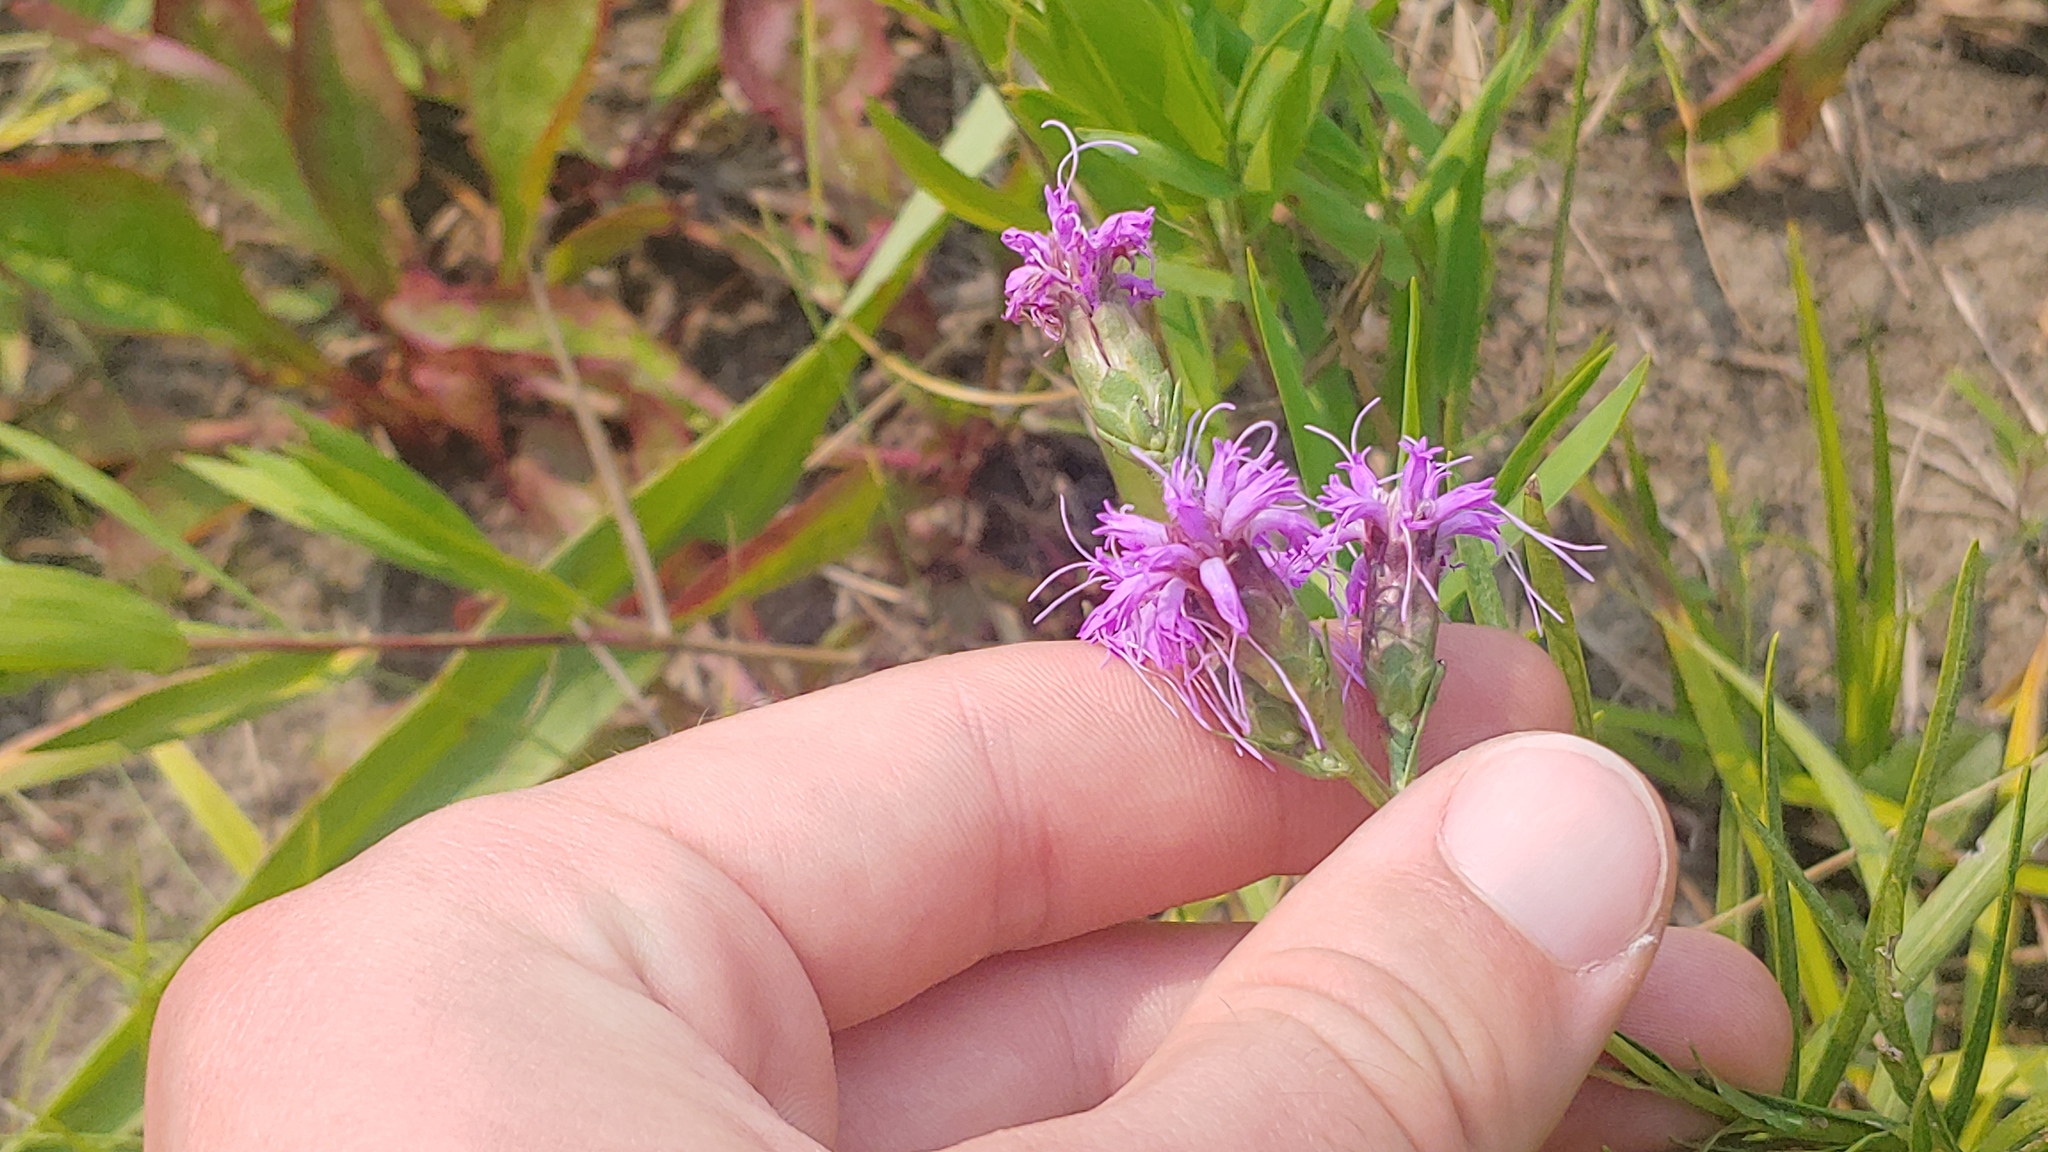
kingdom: Plantae
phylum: Tracheophyta
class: Magnoliopsida
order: Asterales
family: Asteraceae
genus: Liatris
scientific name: Liatris cylindracea
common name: Few-head blazingstar
